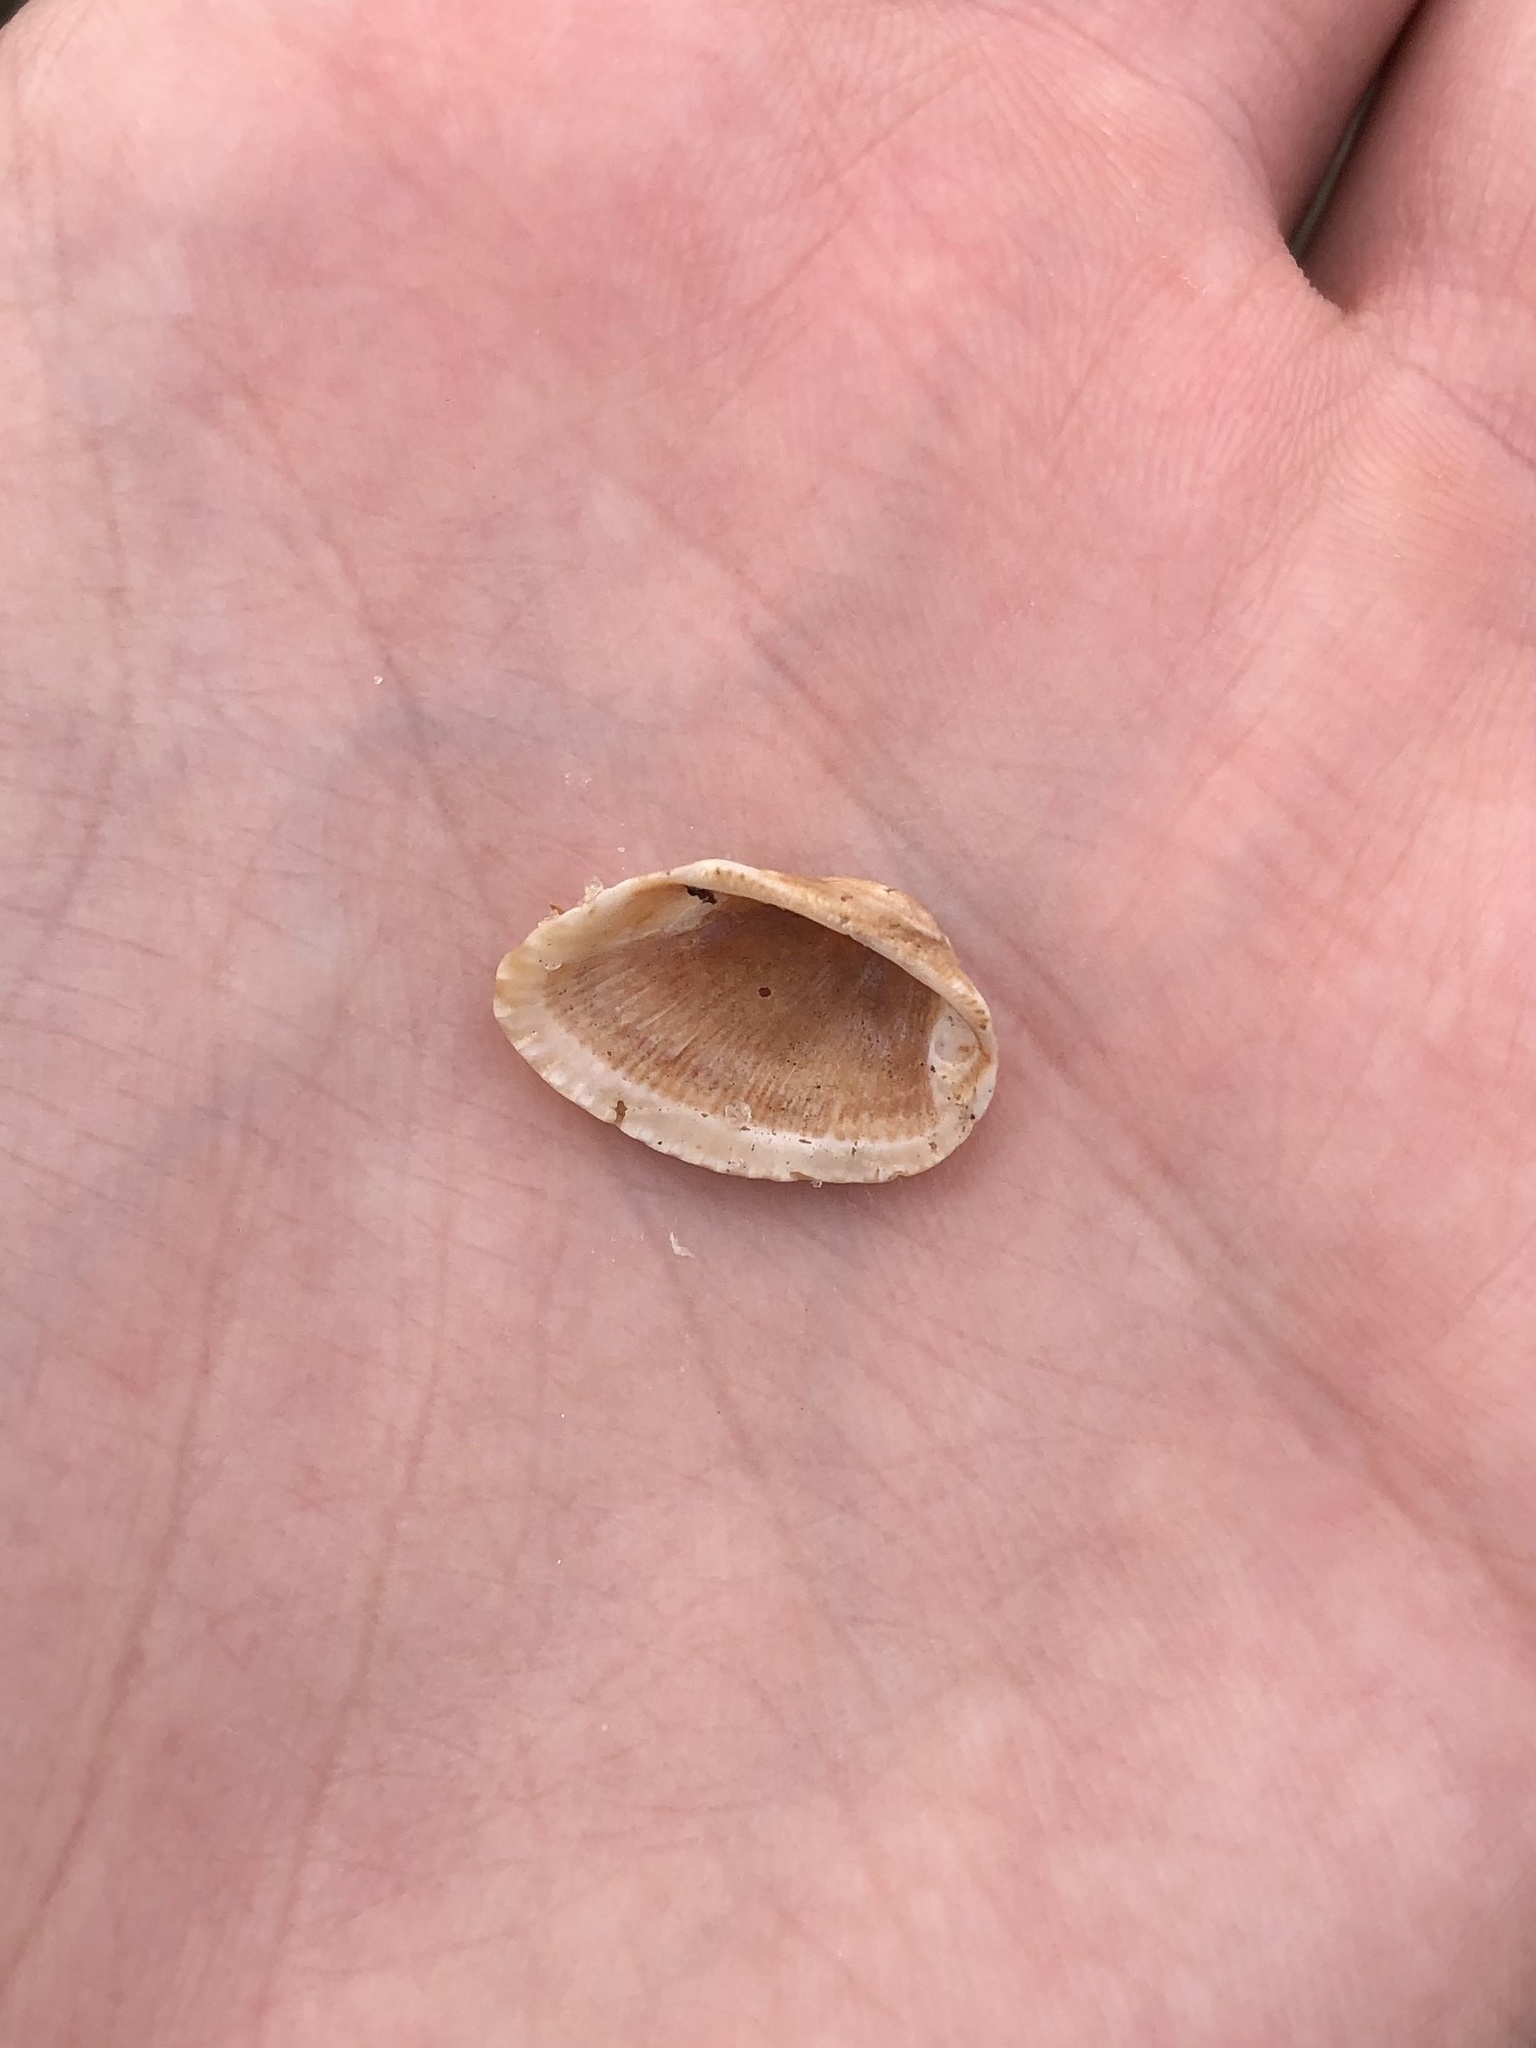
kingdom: Animalia
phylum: Mollusca
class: Bivalvia
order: Arcida
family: Arcidae
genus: Anadara
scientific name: Anadara transversa
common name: Transverse ark
